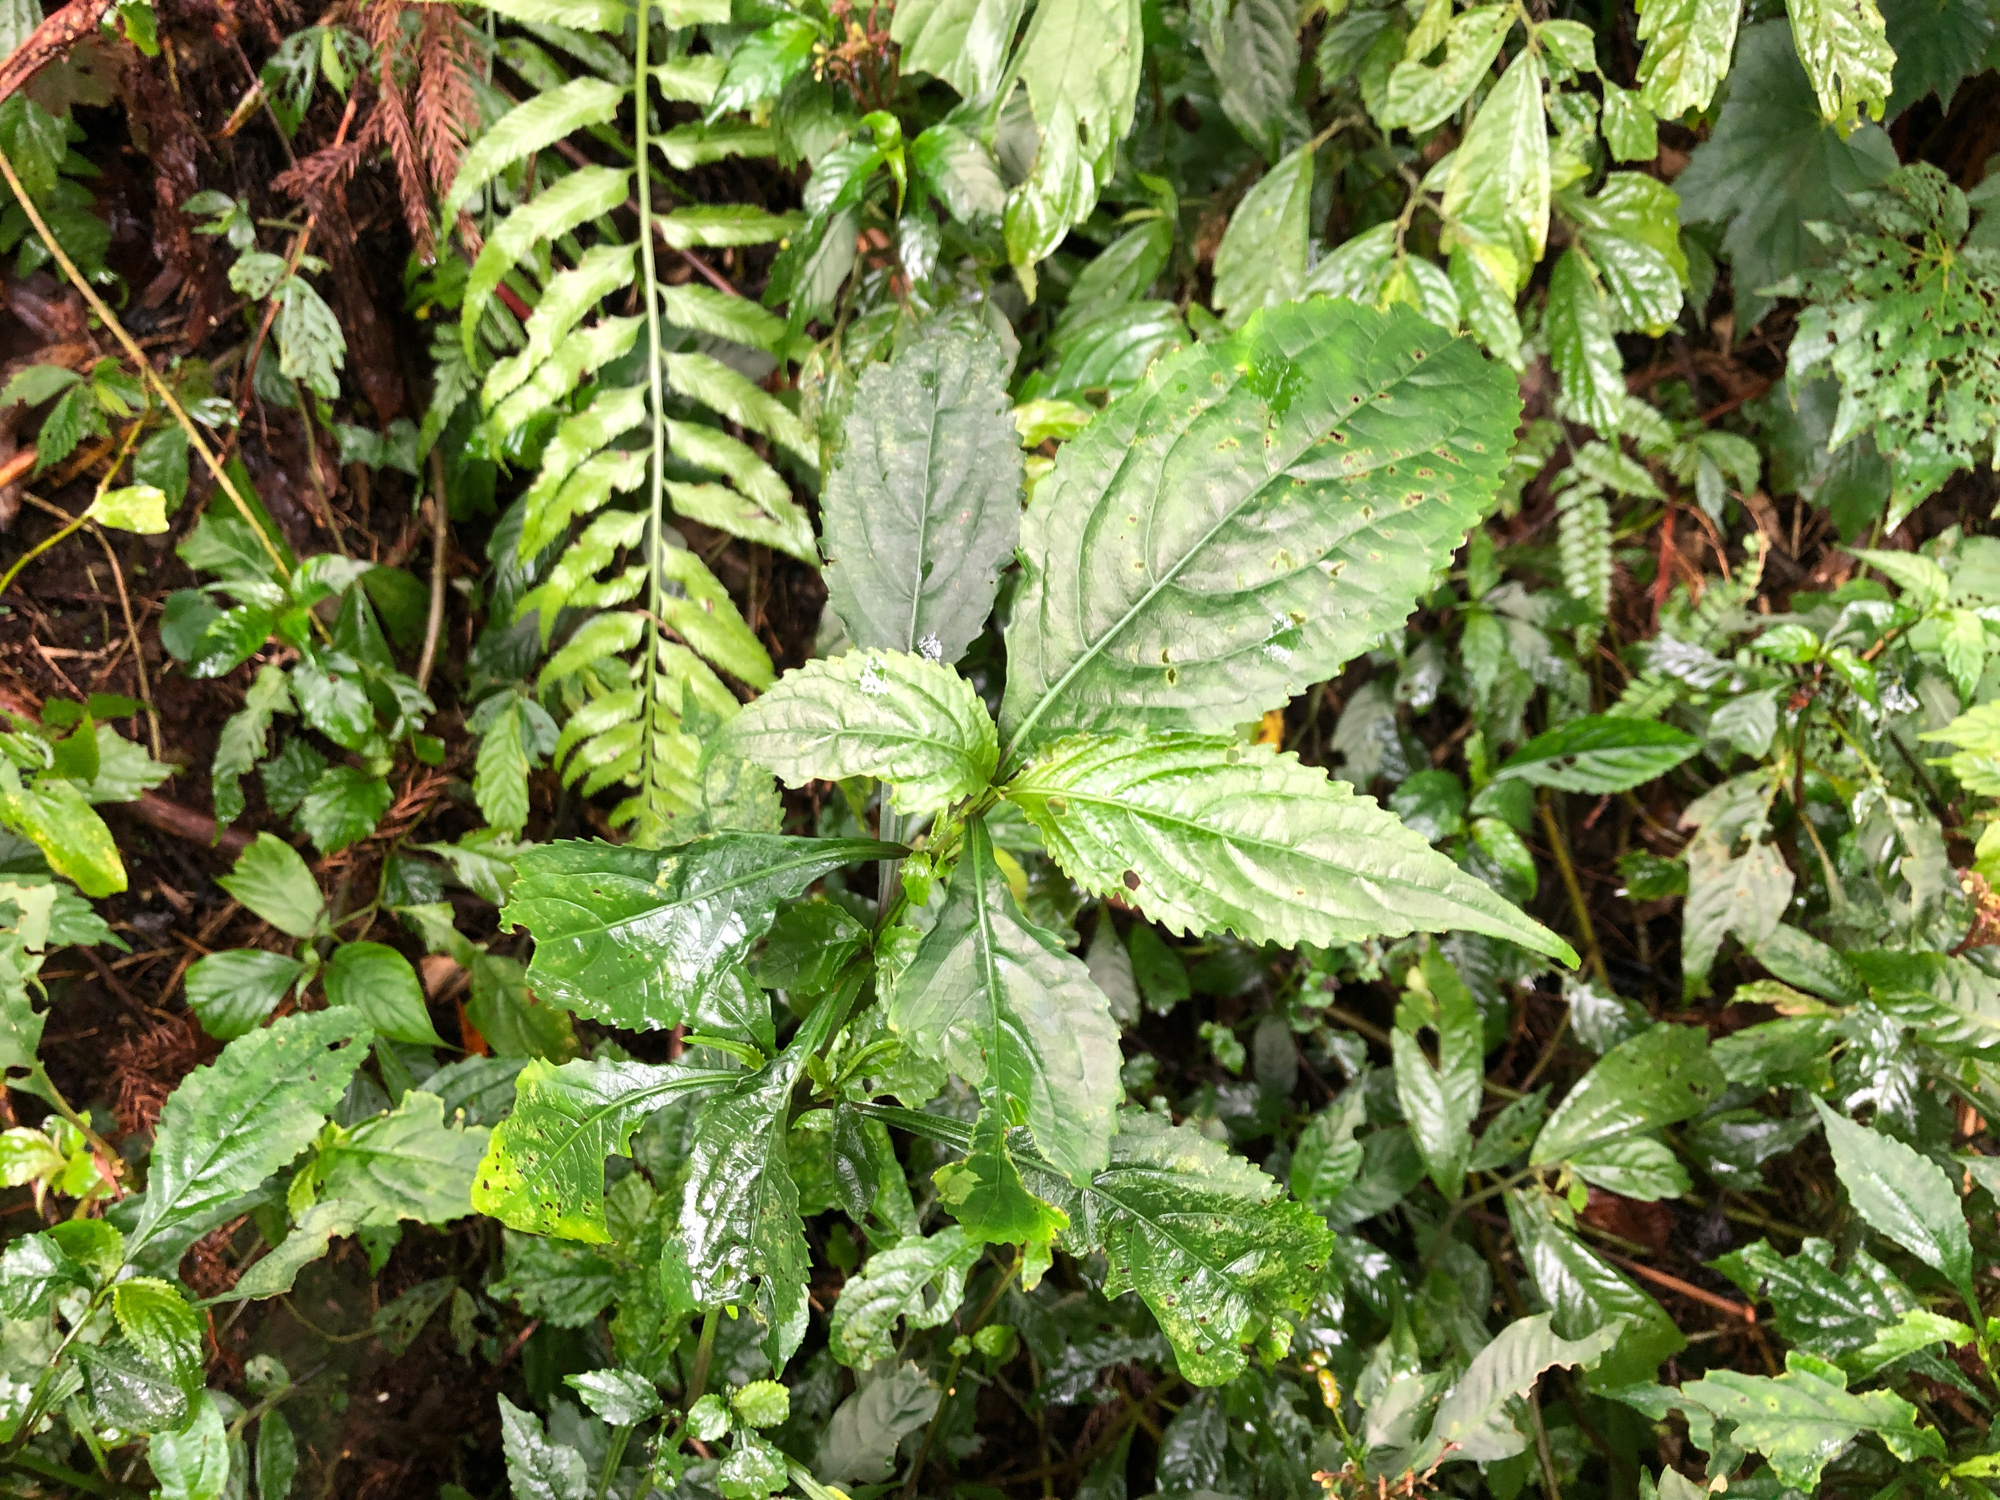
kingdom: Plantae
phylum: Tracheophyta
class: Magnoliopsida
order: Lamiales
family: Acanthaceae
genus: Strobilanthes
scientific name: Strobilanthes flexicaulis
